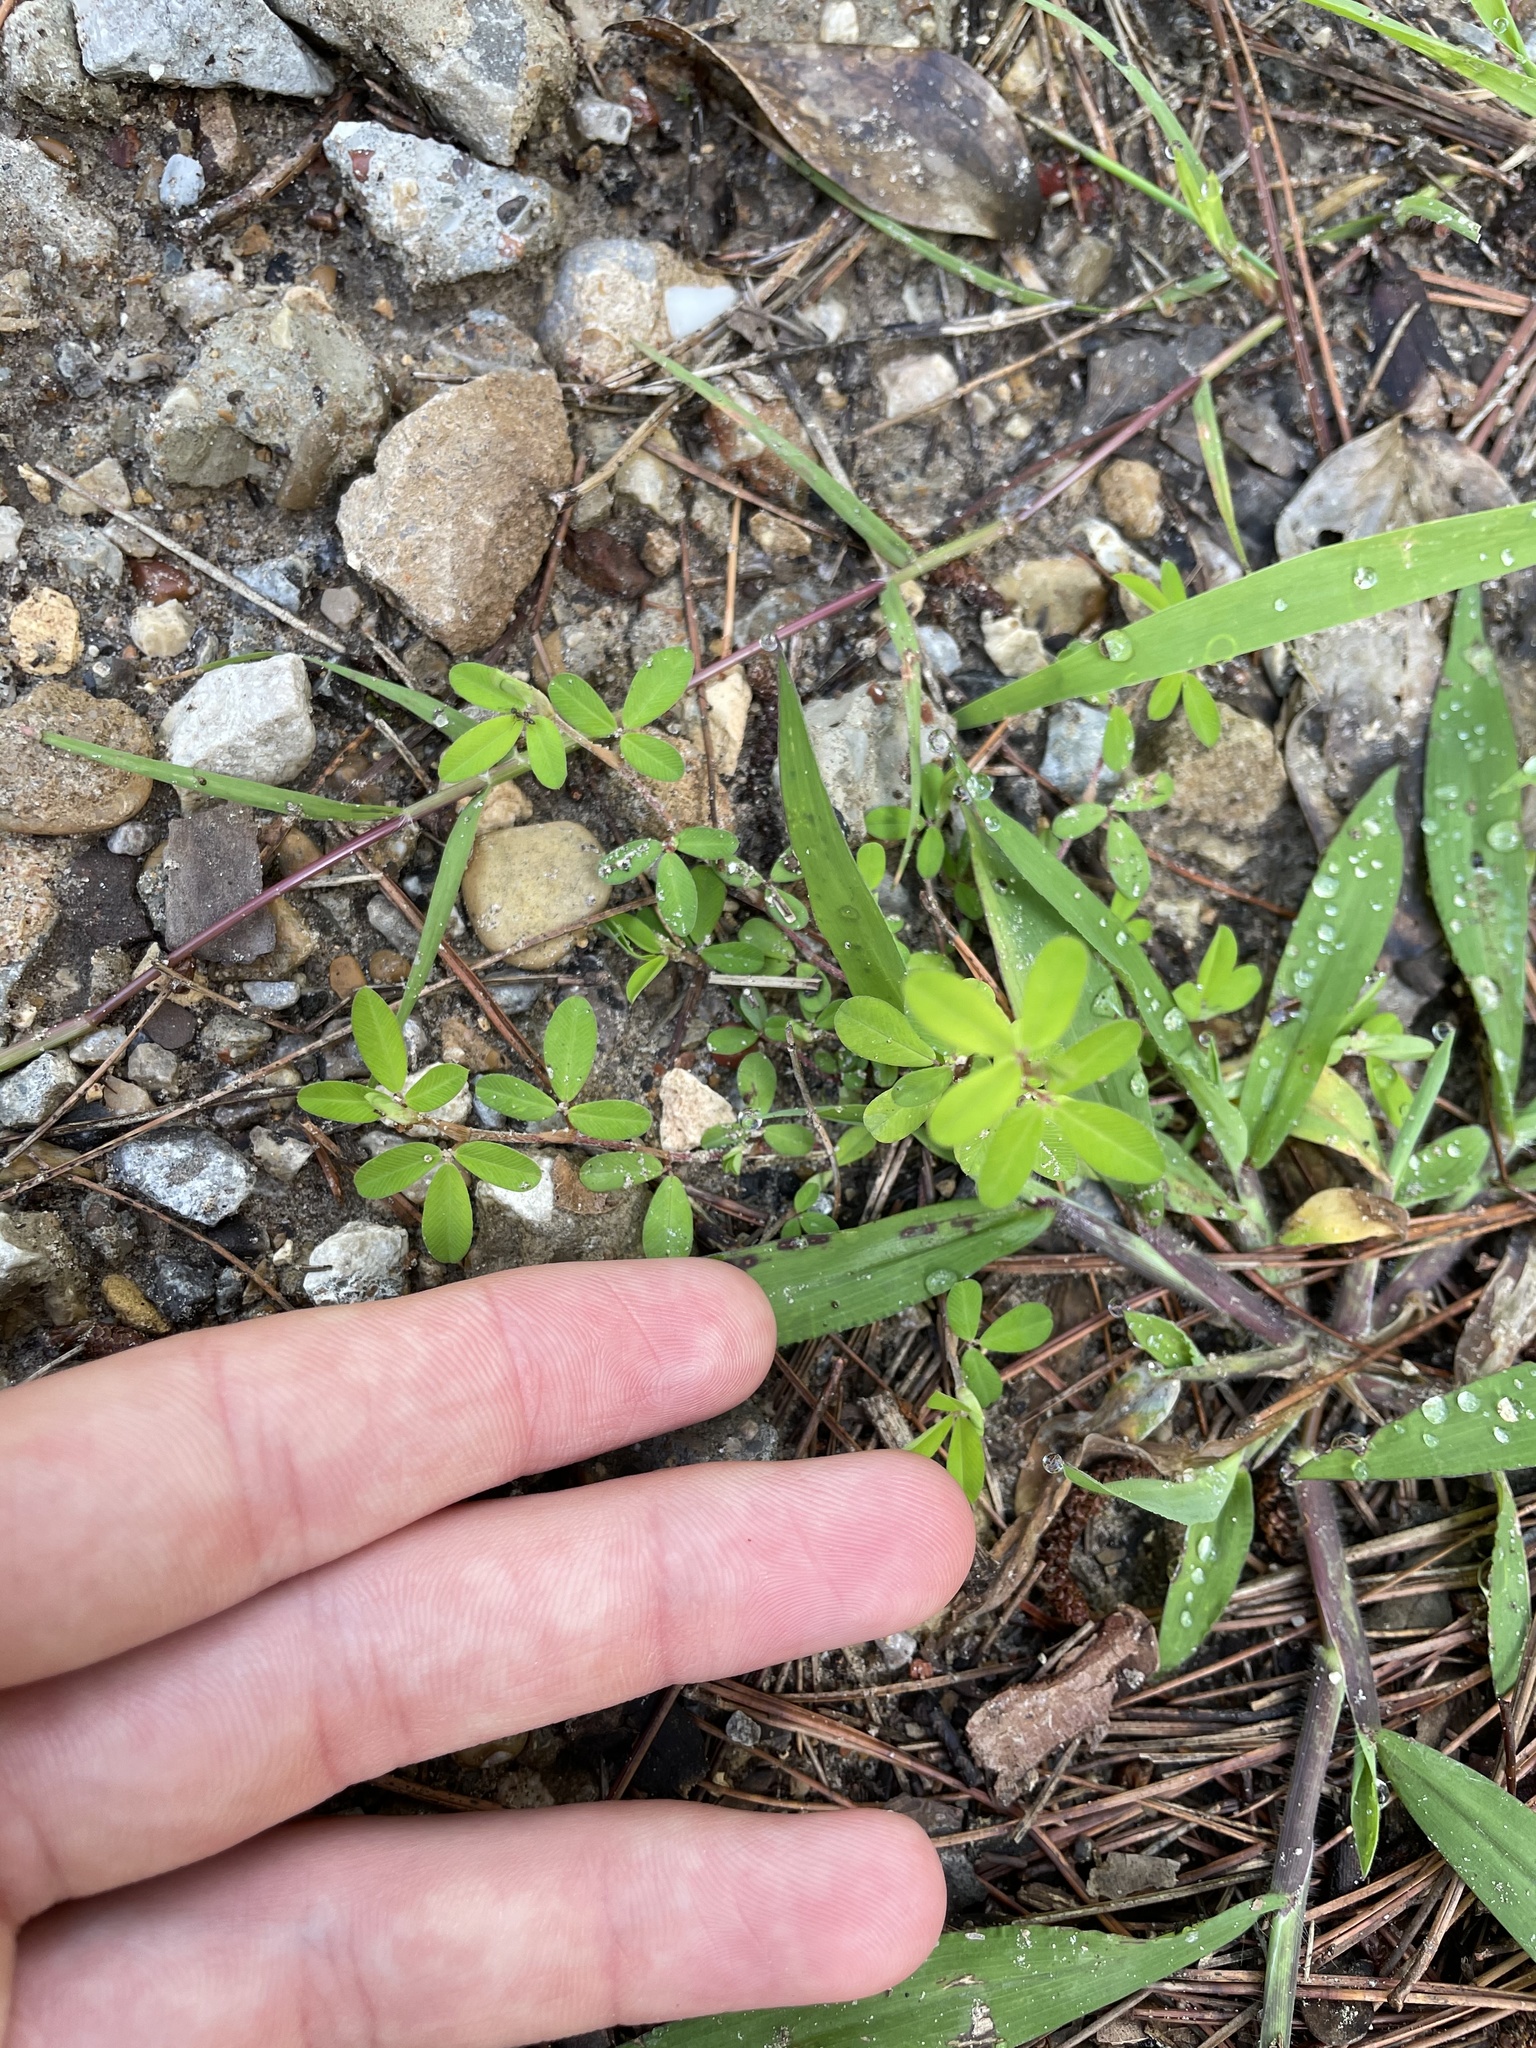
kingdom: Plantae
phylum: Tracheophyta
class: Magnoliopsida
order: Fabales
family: Fabaceae
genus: Kummerowia
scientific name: Kummerowia striata
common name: Japanese clover
